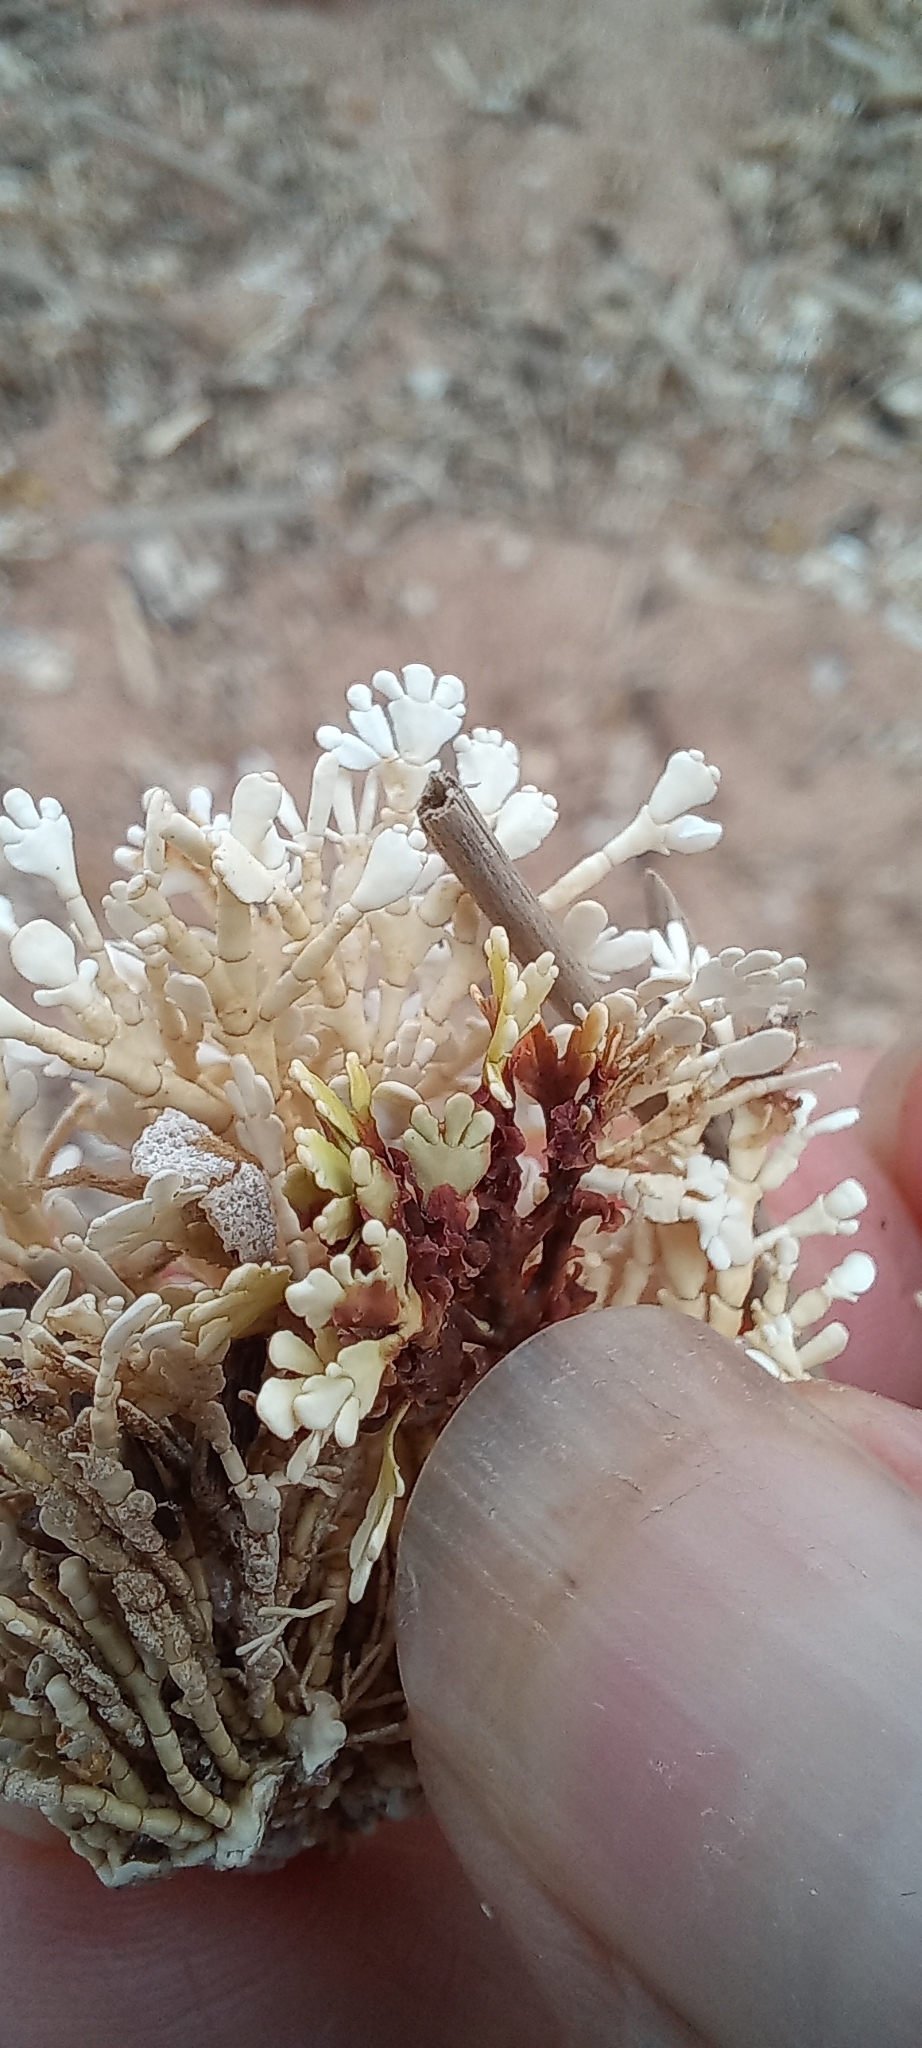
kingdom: Plantae
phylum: Rhodophyta
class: Florideophyceae
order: Corallinales
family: Corallinaceae
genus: Arthrocardia
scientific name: Arthrocardia
